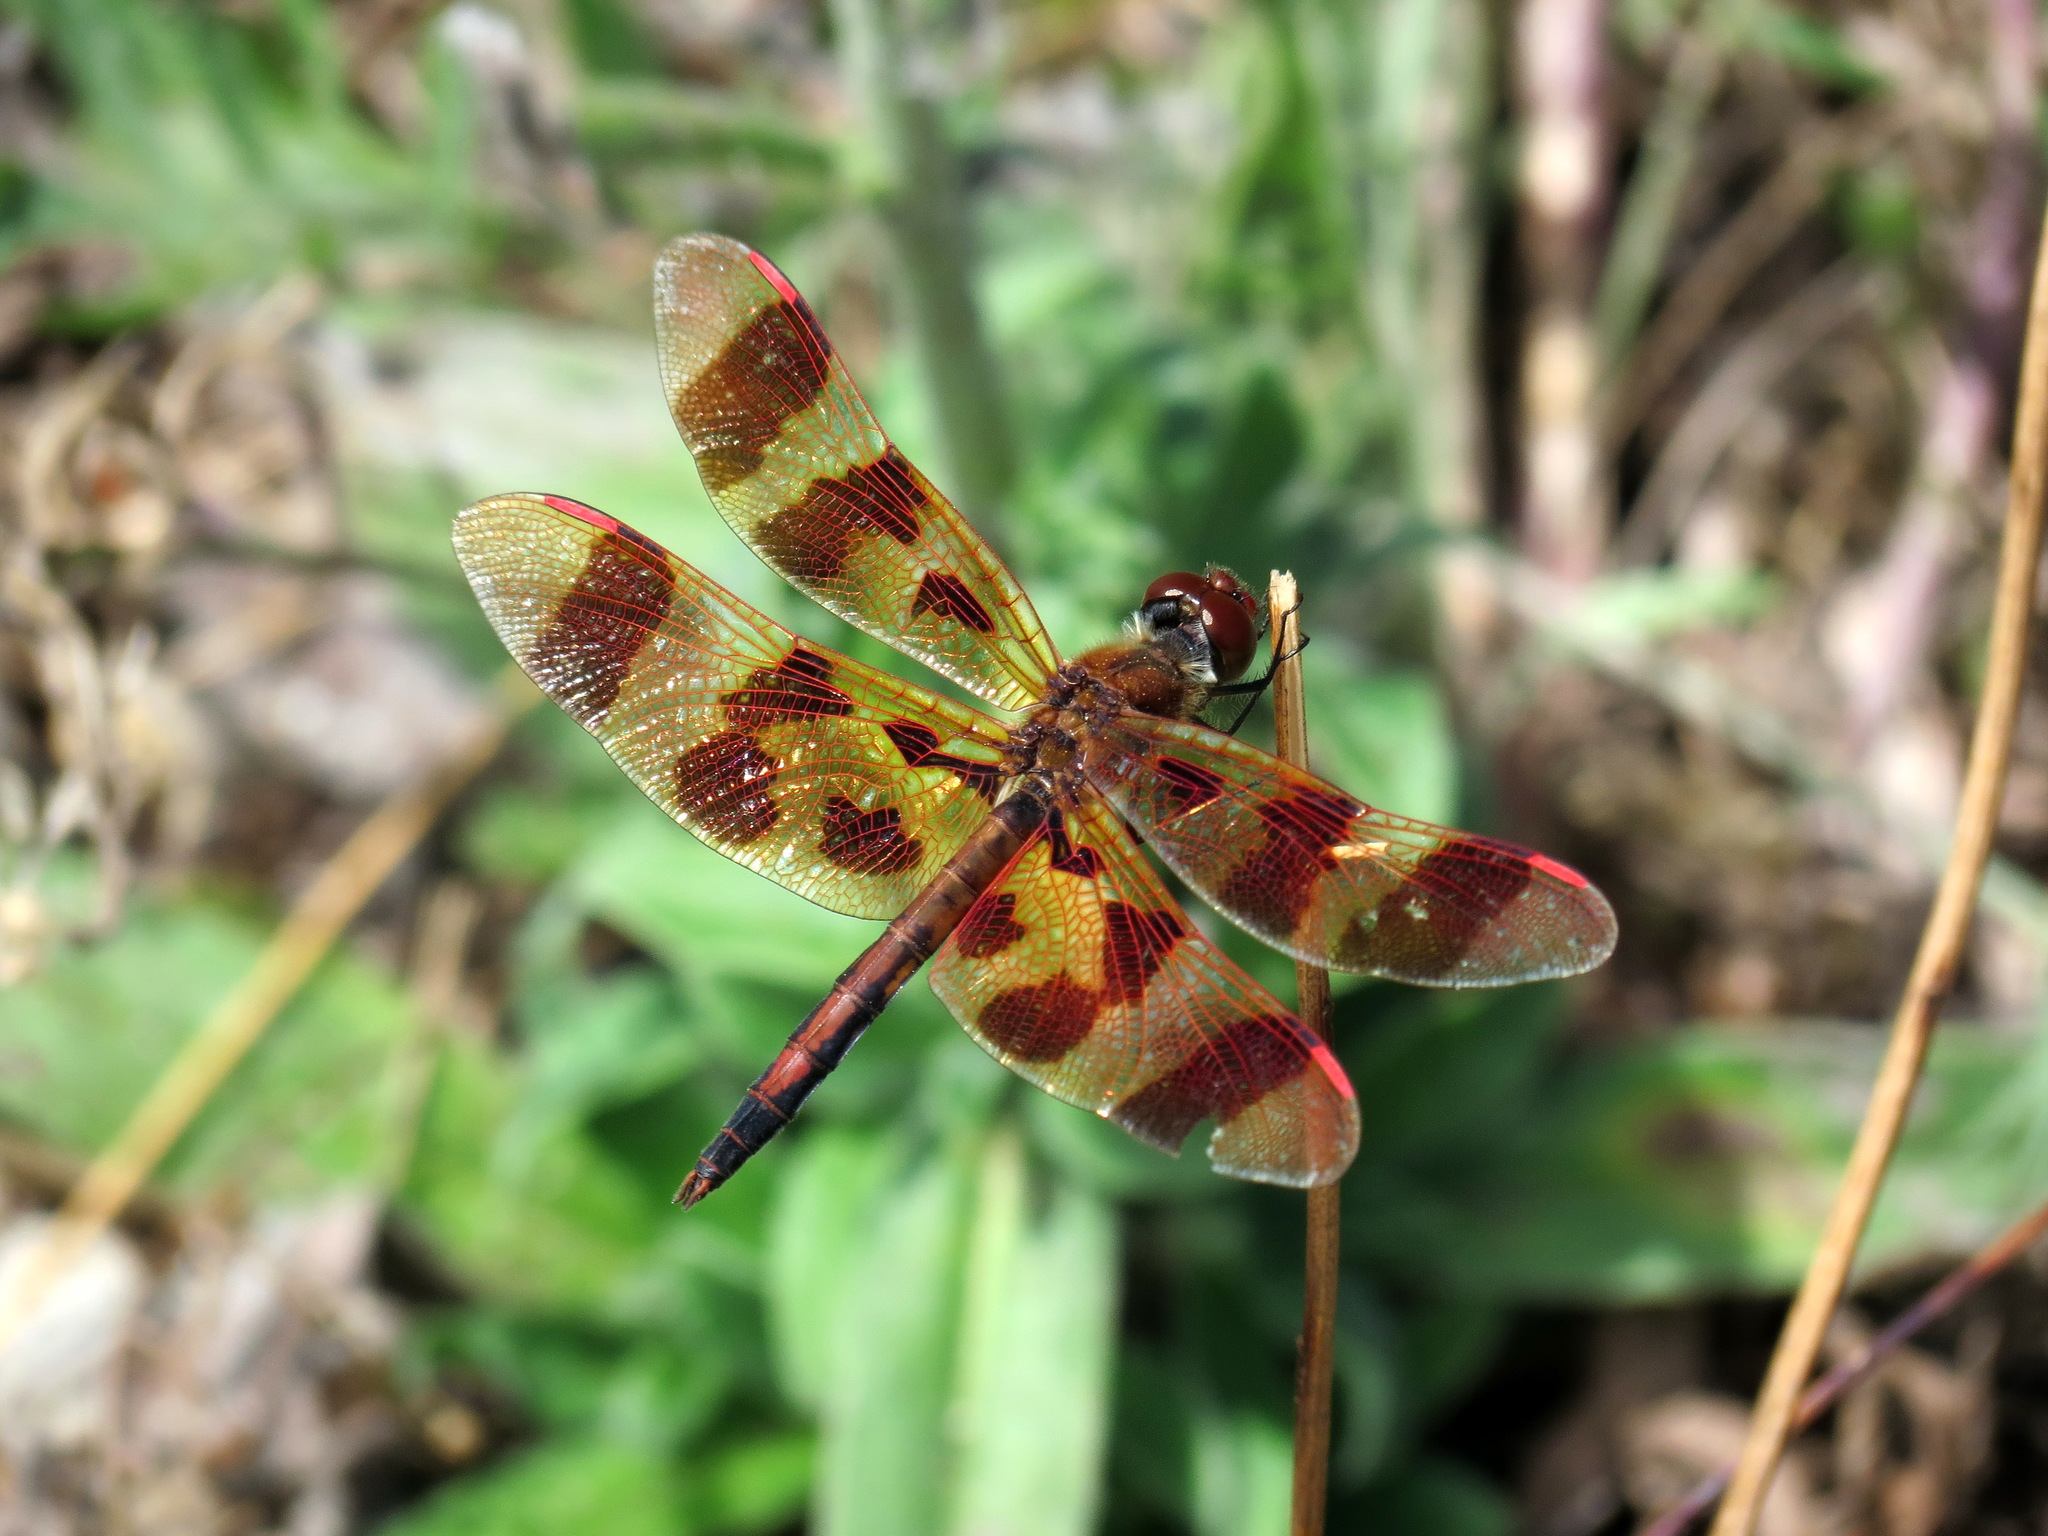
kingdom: Animalia
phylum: Arthropoda
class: Insecta
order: Odonata
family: Libellulidae
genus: Celithemis
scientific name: Celithemis eponina
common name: Halloween pennant
